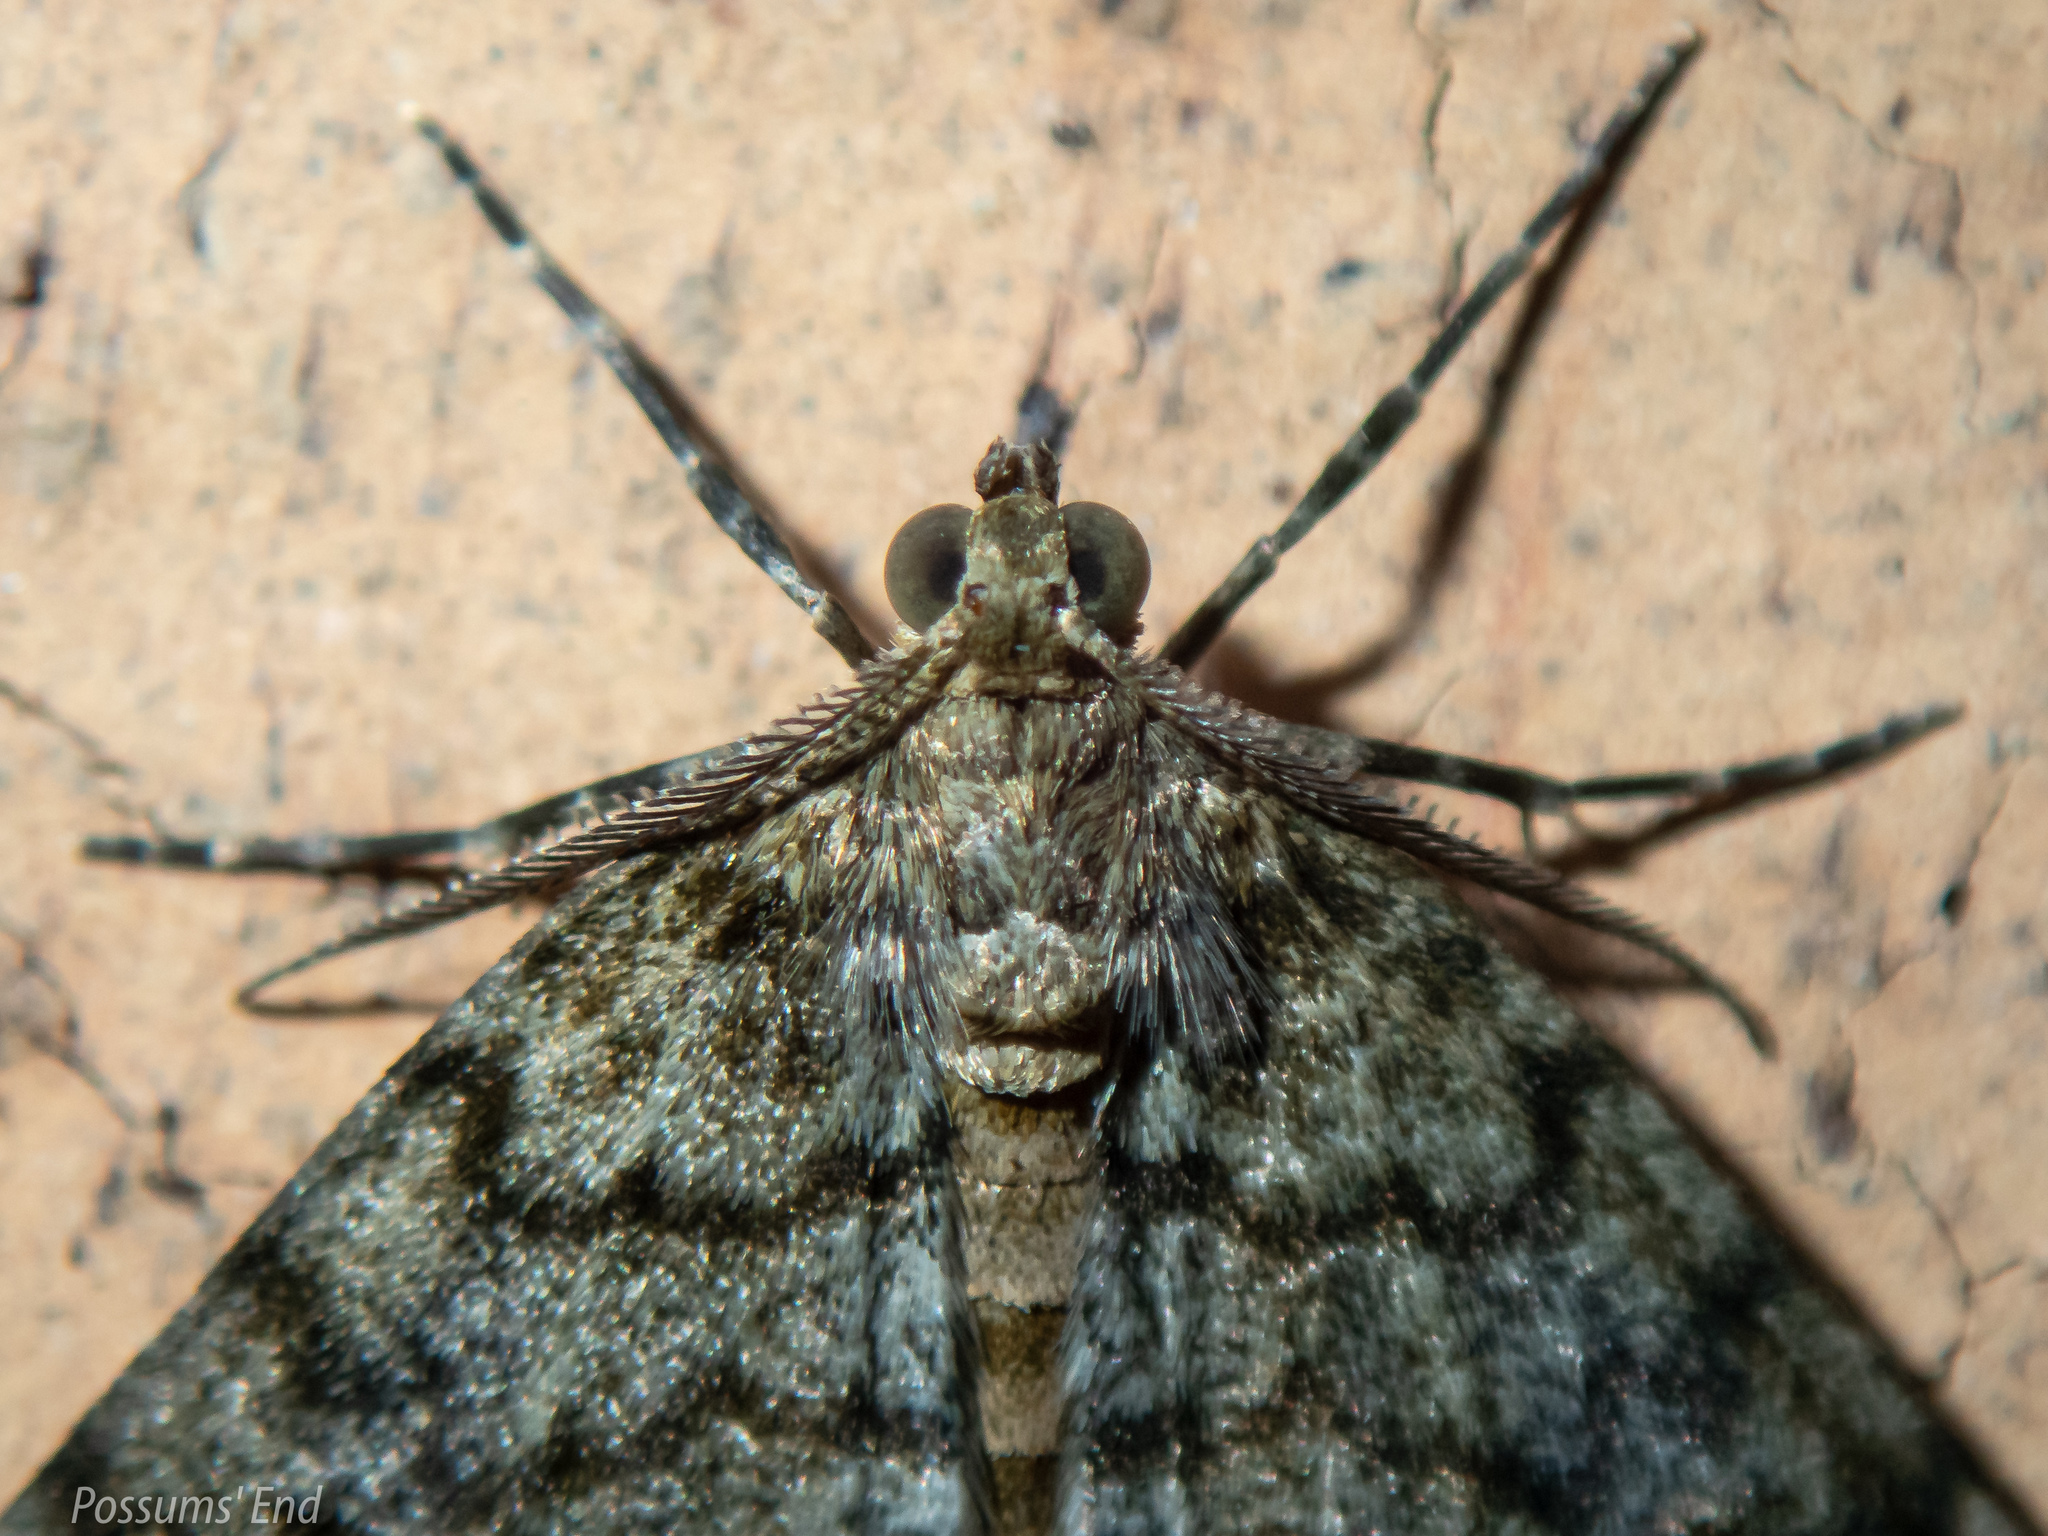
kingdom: Animalia
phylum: Arthropoda
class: Insecta
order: Lepidoptera
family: Geometridae
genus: Pseudocoremia
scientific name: Pseudocoremia indistincta
